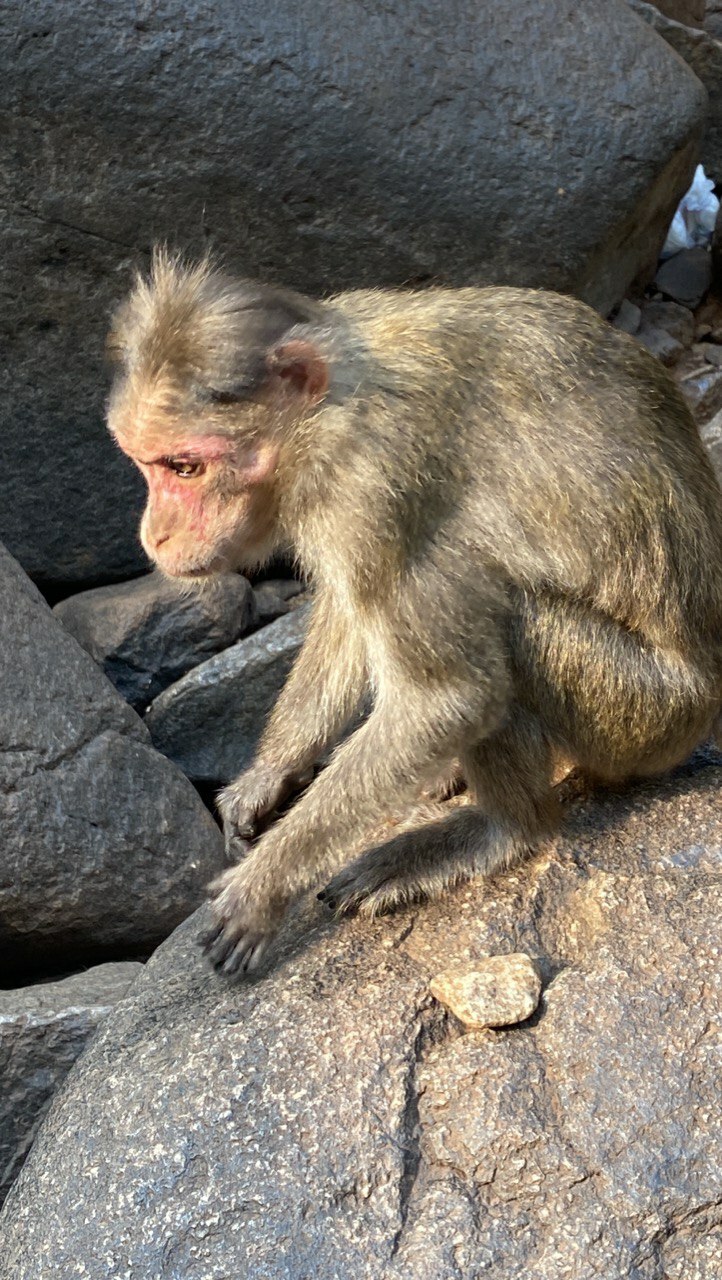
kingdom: Animalia
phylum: Chordata
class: Mammalia
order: Primates
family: Cercopithecidae
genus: Macaca
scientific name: Macaca radiata
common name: Bonnet macaque
